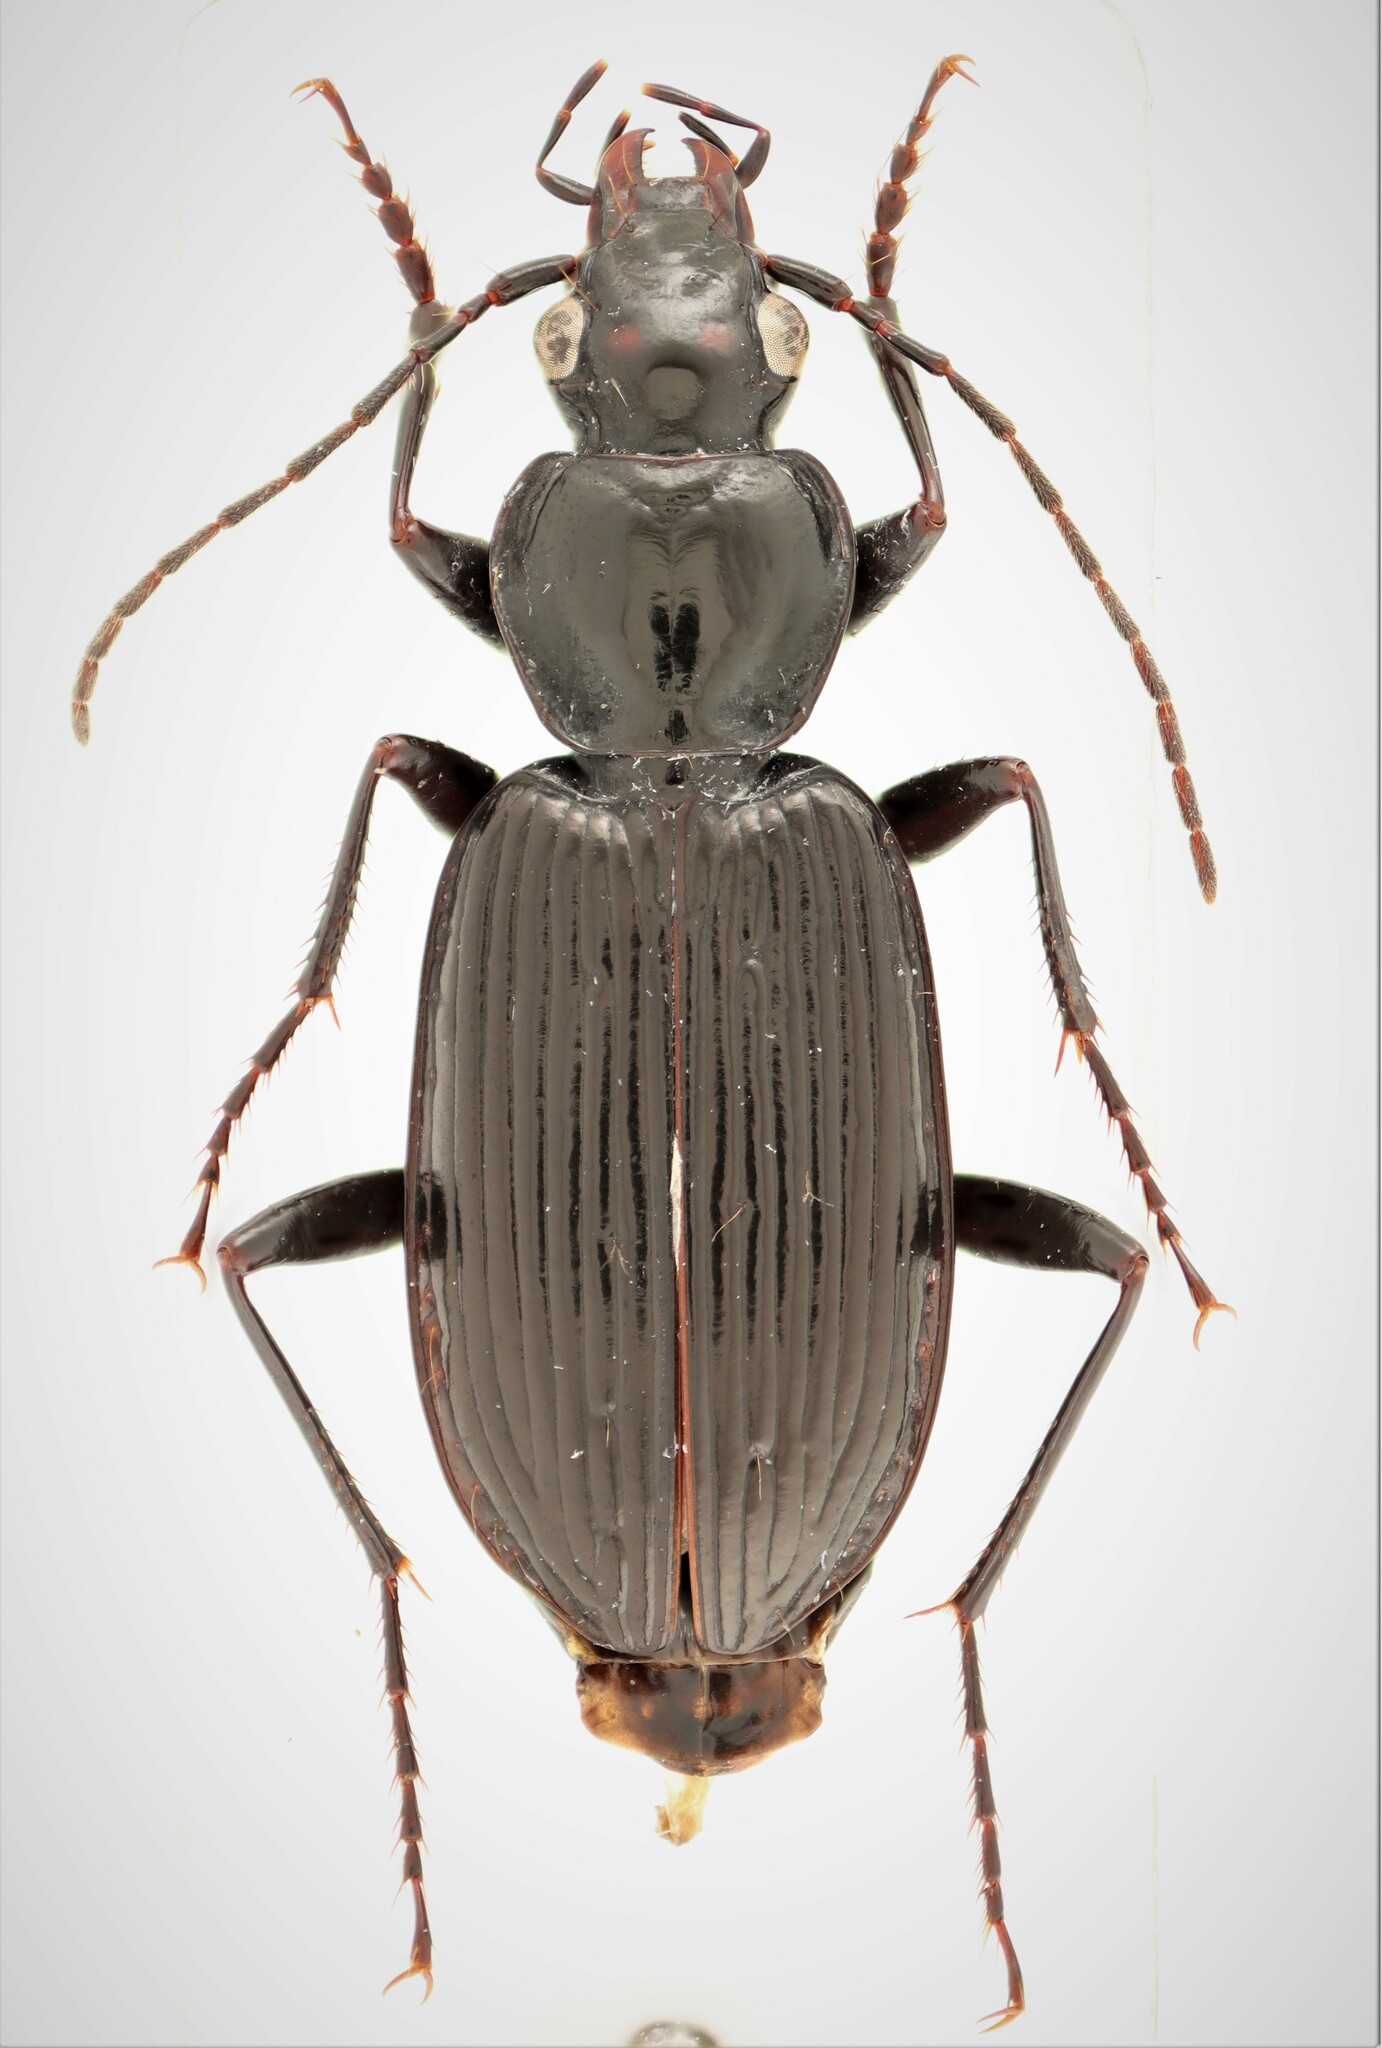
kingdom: Animalia
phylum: Arthropoda
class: Insecta
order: Coleoptera
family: Carabidae
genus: Platynus
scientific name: Platynus mannerheimii
